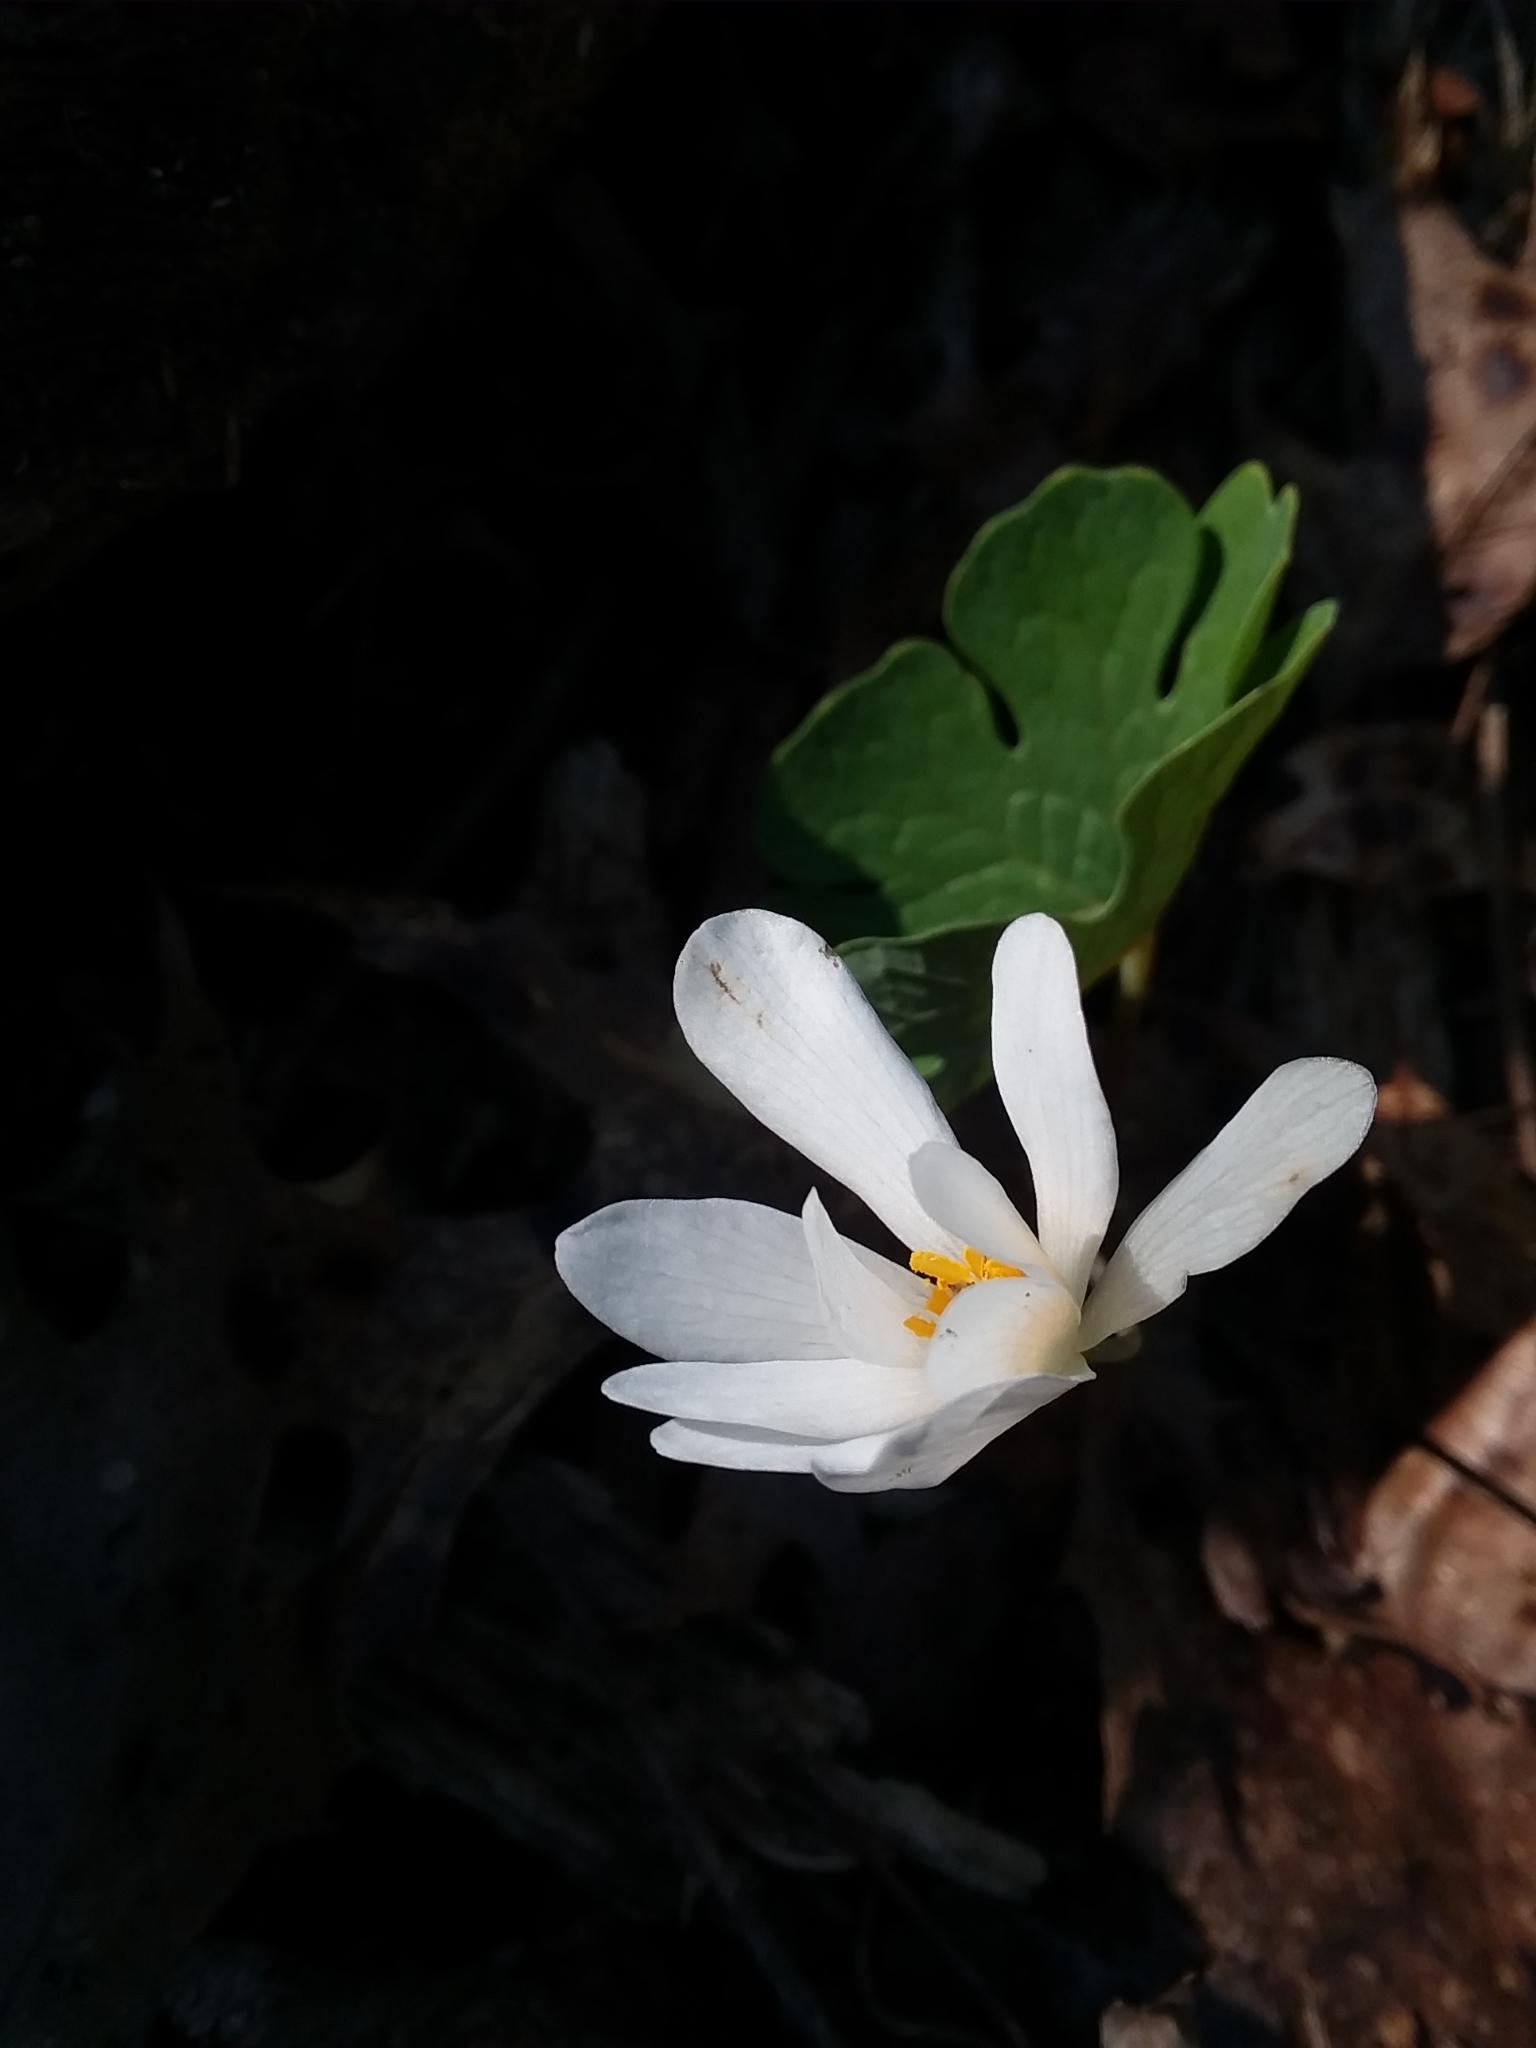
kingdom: Plantae
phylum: Tracheophyta
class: Magnoliopsida
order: Ranunculales
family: Papaveraceae
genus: Sanguinaria
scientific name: Sanguinaria canadensis
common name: Bloodroot
